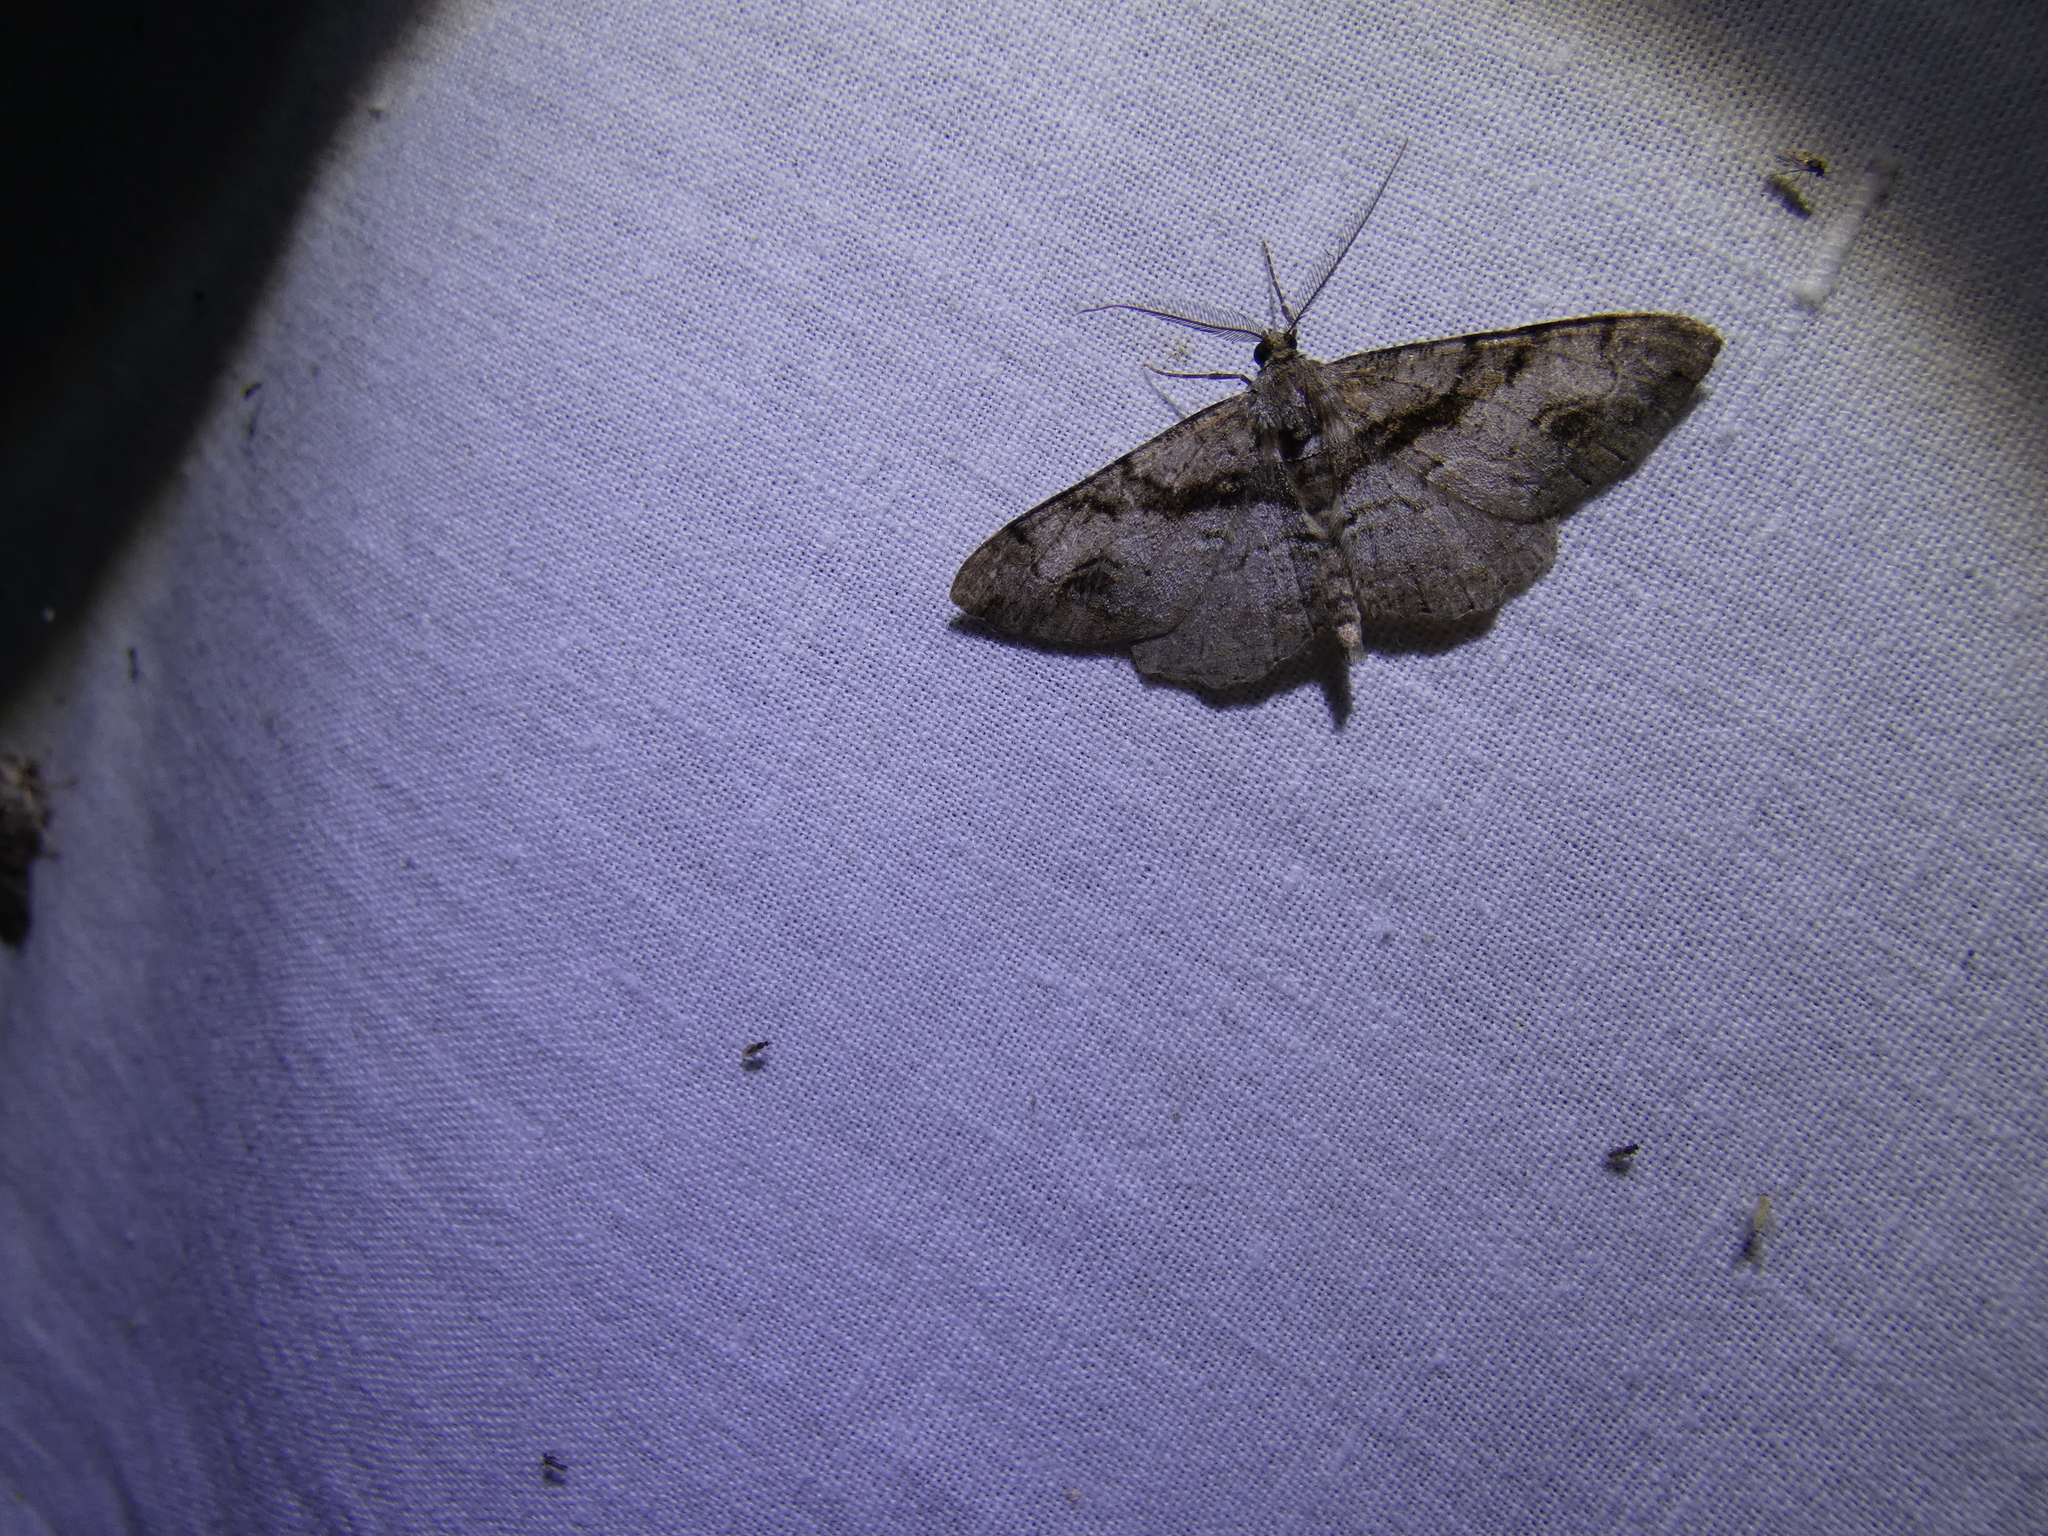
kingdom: Animalia
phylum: Arthropoda
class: Insecta
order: Lepidoptera
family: Geometridae
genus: Alcis
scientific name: Alcis deversata
